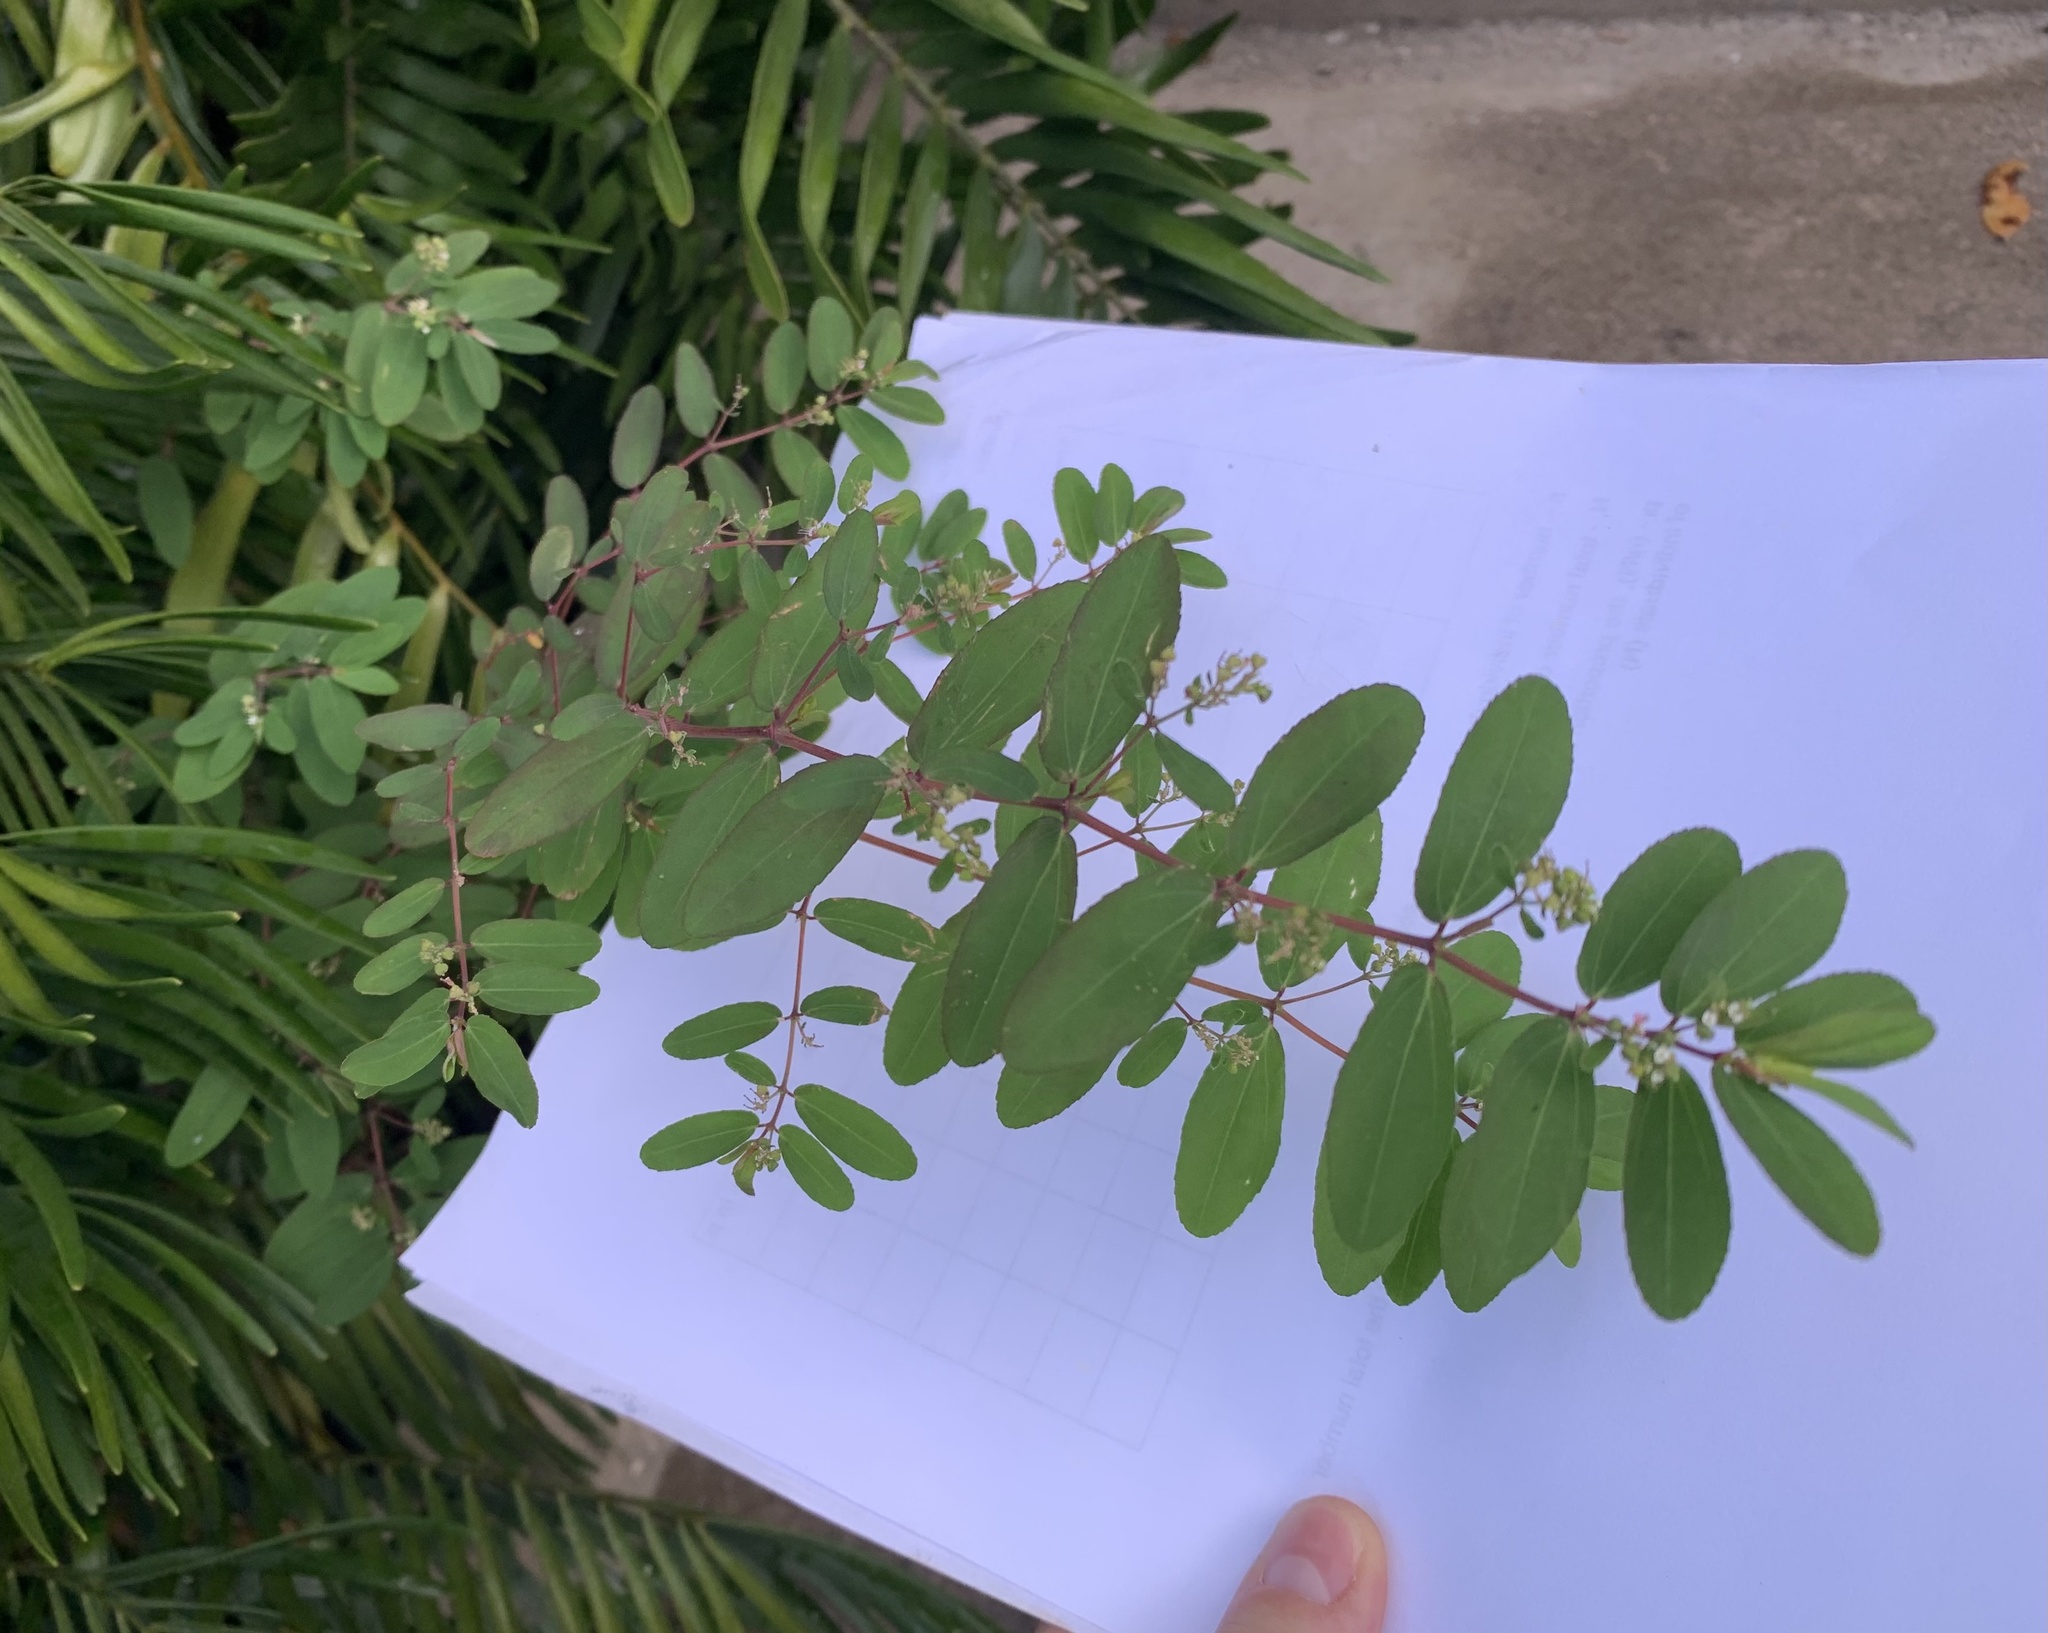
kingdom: Plantae
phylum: Tracheophyta
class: Magnoliopsida
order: Malpighiales
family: Euphorbiaceae
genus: Euphorbia
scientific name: Euphorbia hypericifolia
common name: Graceful sandmat
